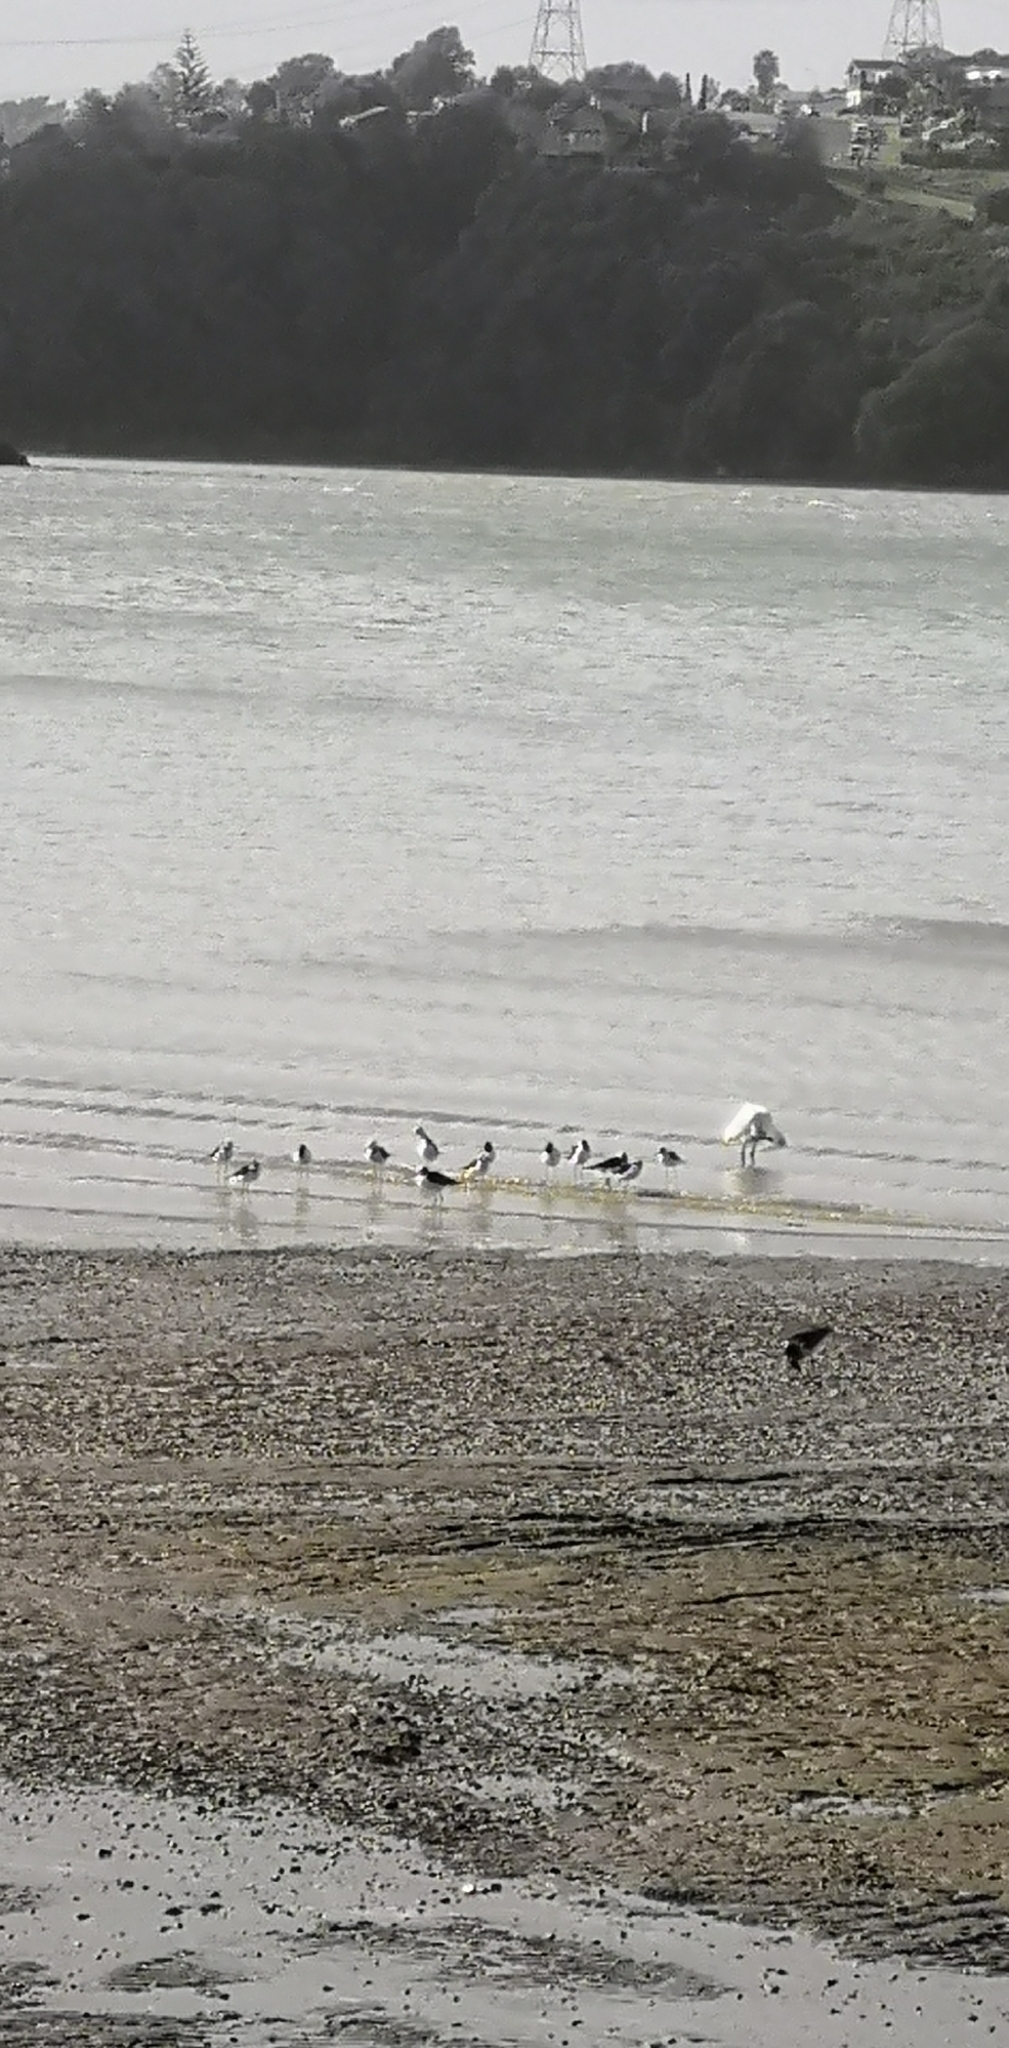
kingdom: Animalia
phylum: Chordata
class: Aves
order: Charadriiformes
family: Recurvirostridae
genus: Himantopus
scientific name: Himantopus leucocephalus
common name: White-headed stilt
